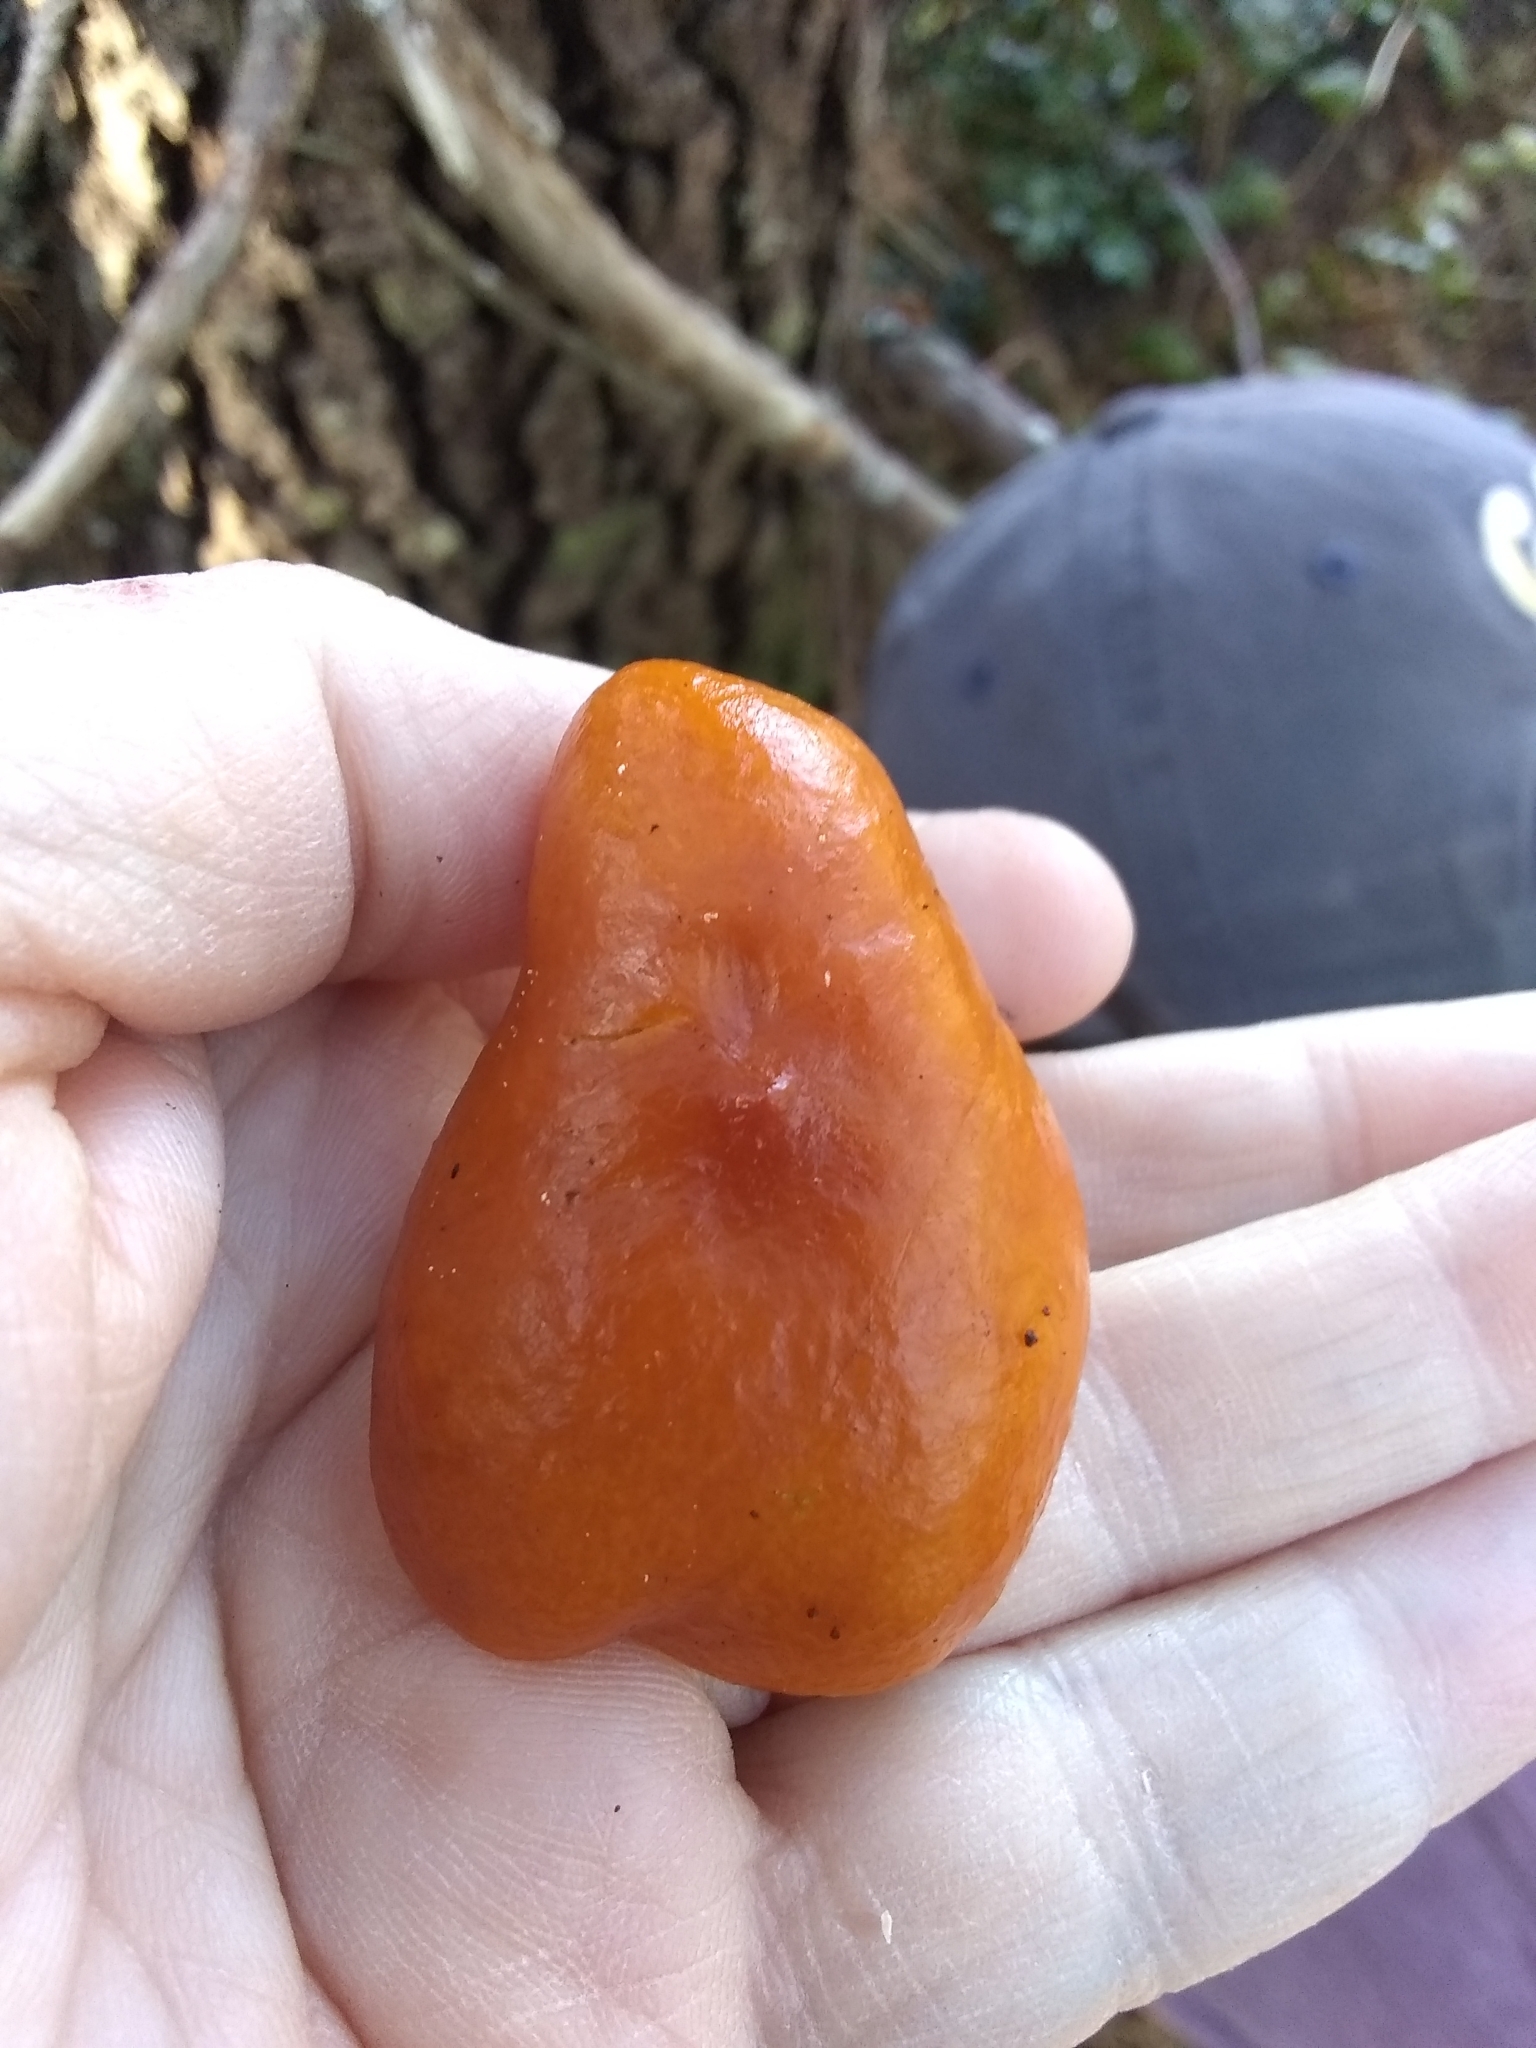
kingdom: Fungi
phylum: Basidiomycota
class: Agaricomycetes
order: Russulales
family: Russulaceae
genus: Lactarius
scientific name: Lactarius rubidus
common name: Candy cap
